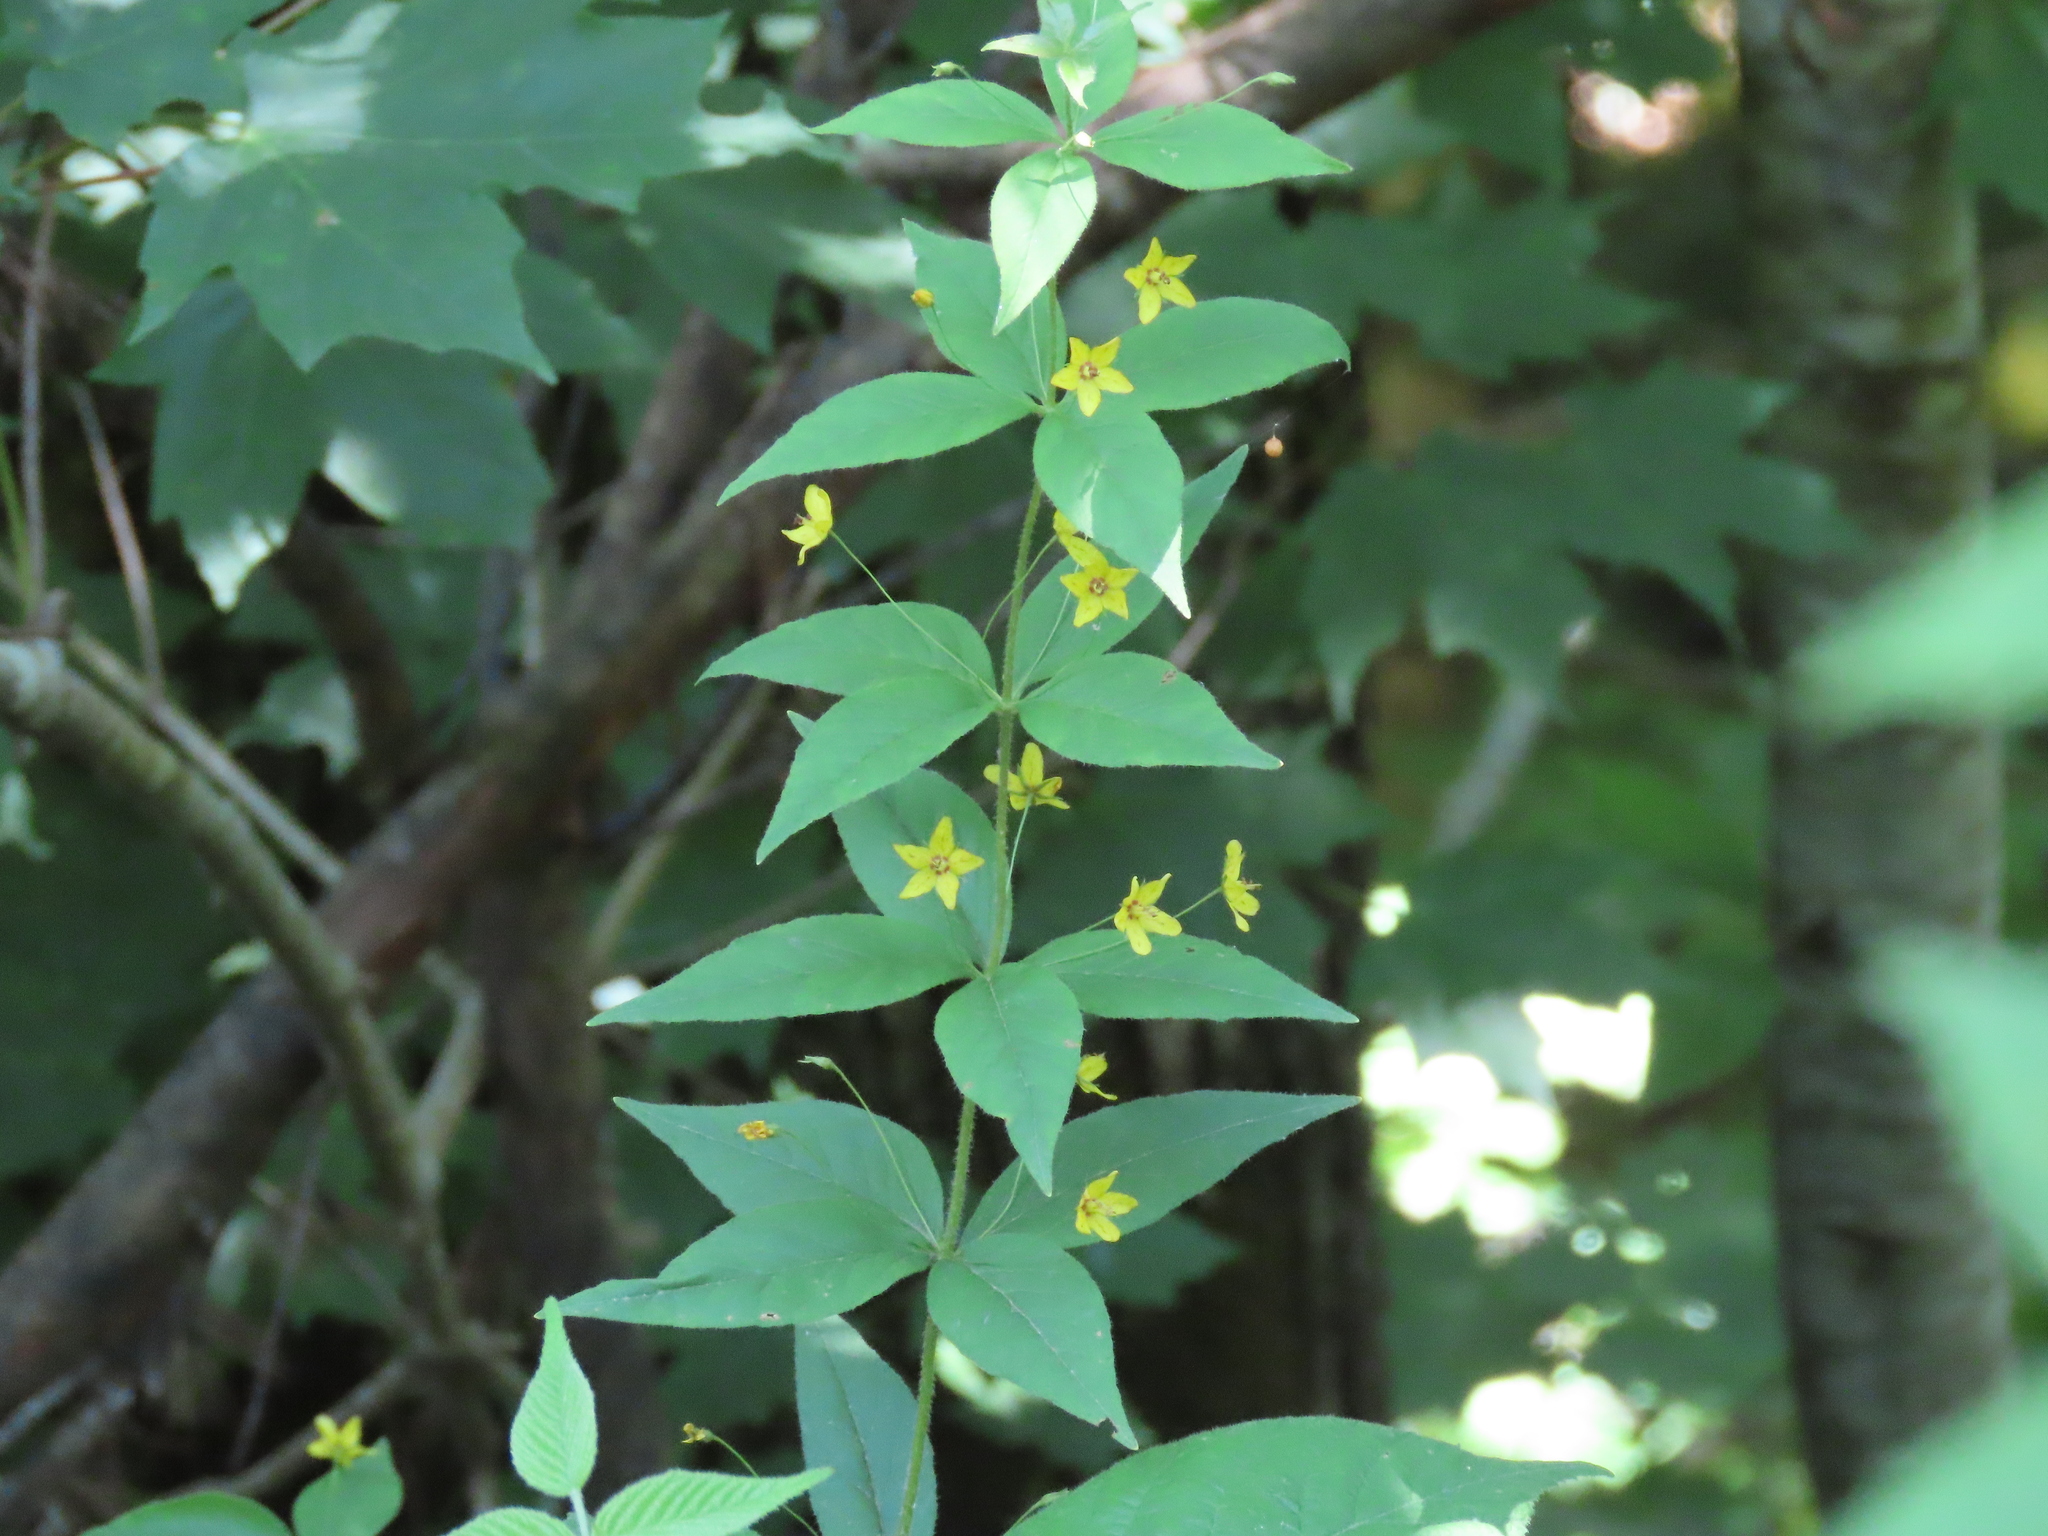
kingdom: Plantae
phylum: Tracheophyta
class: Magnoliopsida
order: Ericales
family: Primulaceae
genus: Lysimachia
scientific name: Lysimachia quadrifolia
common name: Whorled loosestrife
